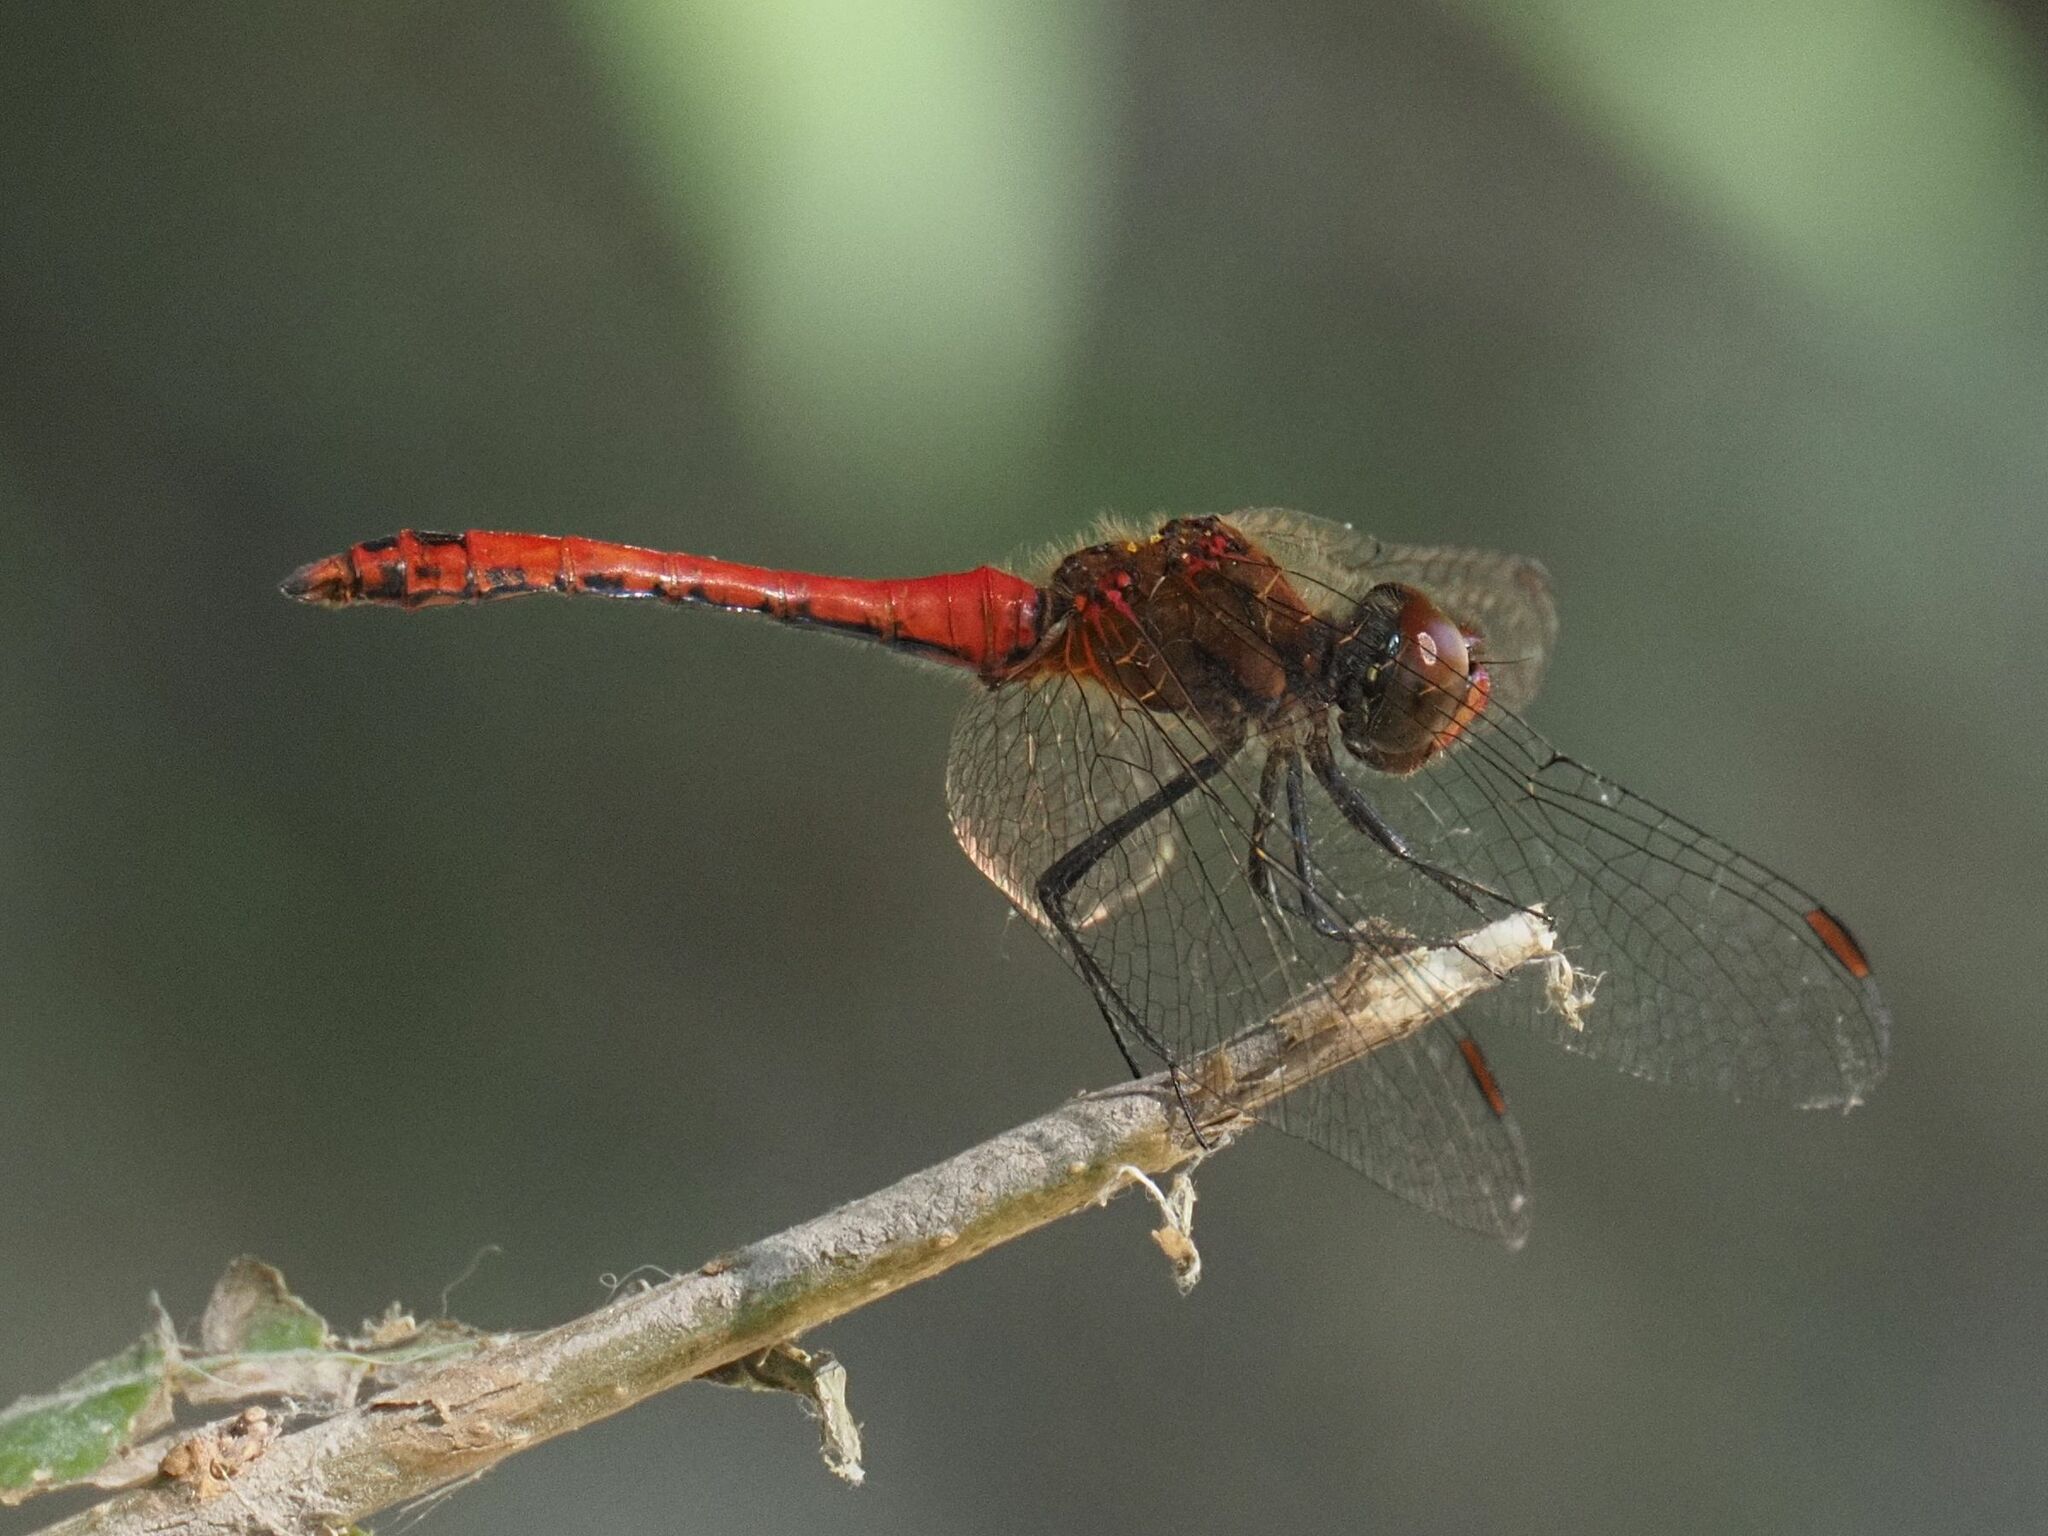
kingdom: Animalia
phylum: Arthropoda
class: Insecta
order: Odonata
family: Libellulidae
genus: Sympetrum
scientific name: Sympetrum sanguineum
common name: Ruddy darter
